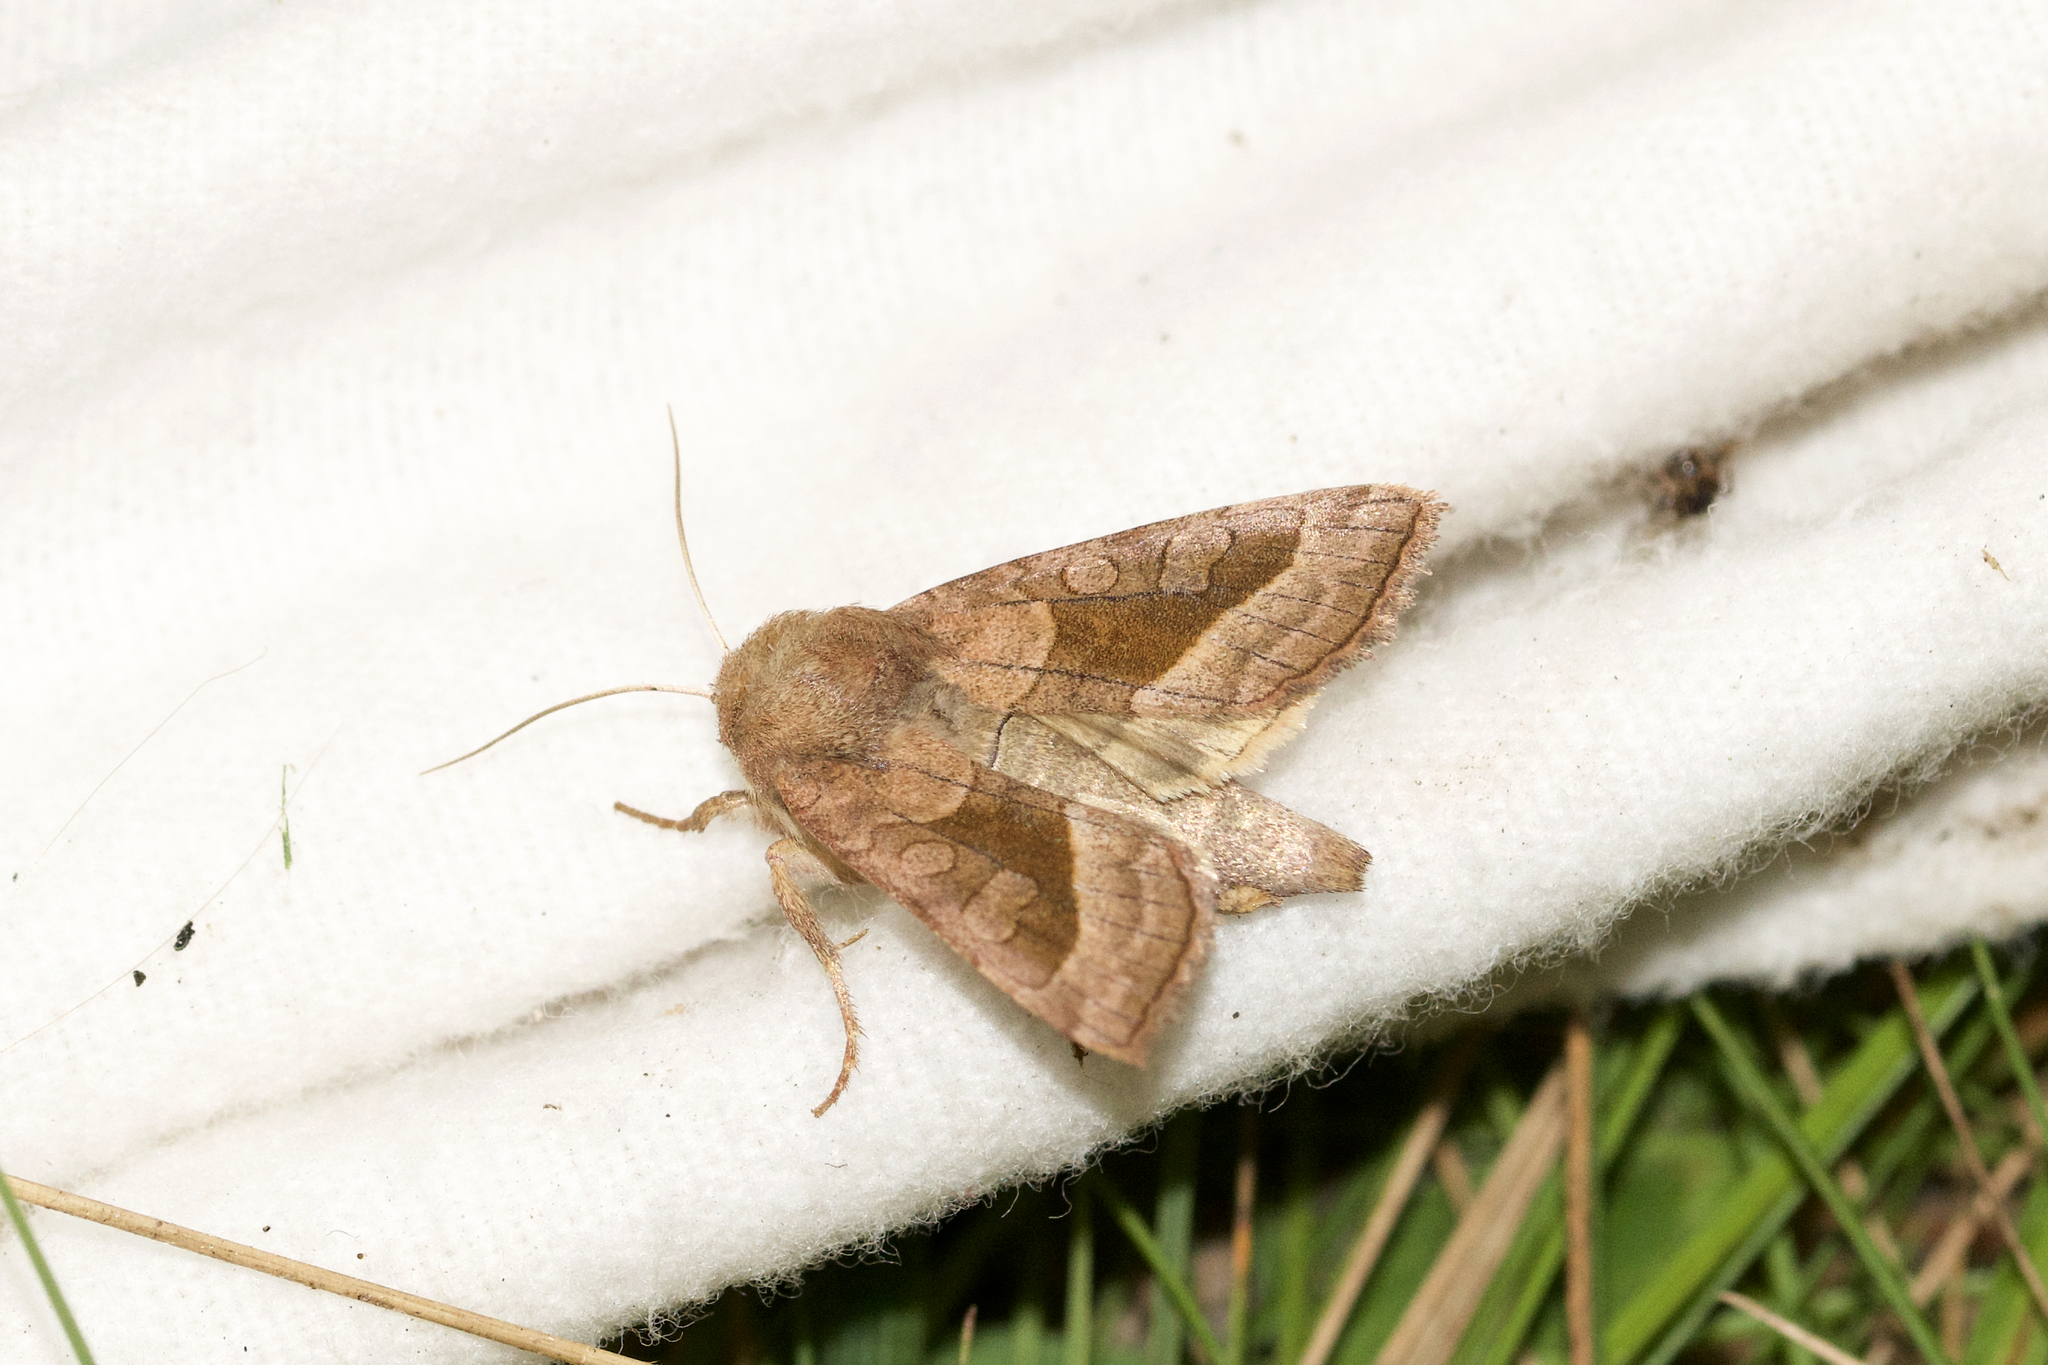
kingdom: Animalia
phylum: Arthropoda
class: Insecta
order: Lepidoptera
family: Noctuidae
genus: Hydraecia
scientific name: Hydraecia micacea
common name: Rosy rustic
